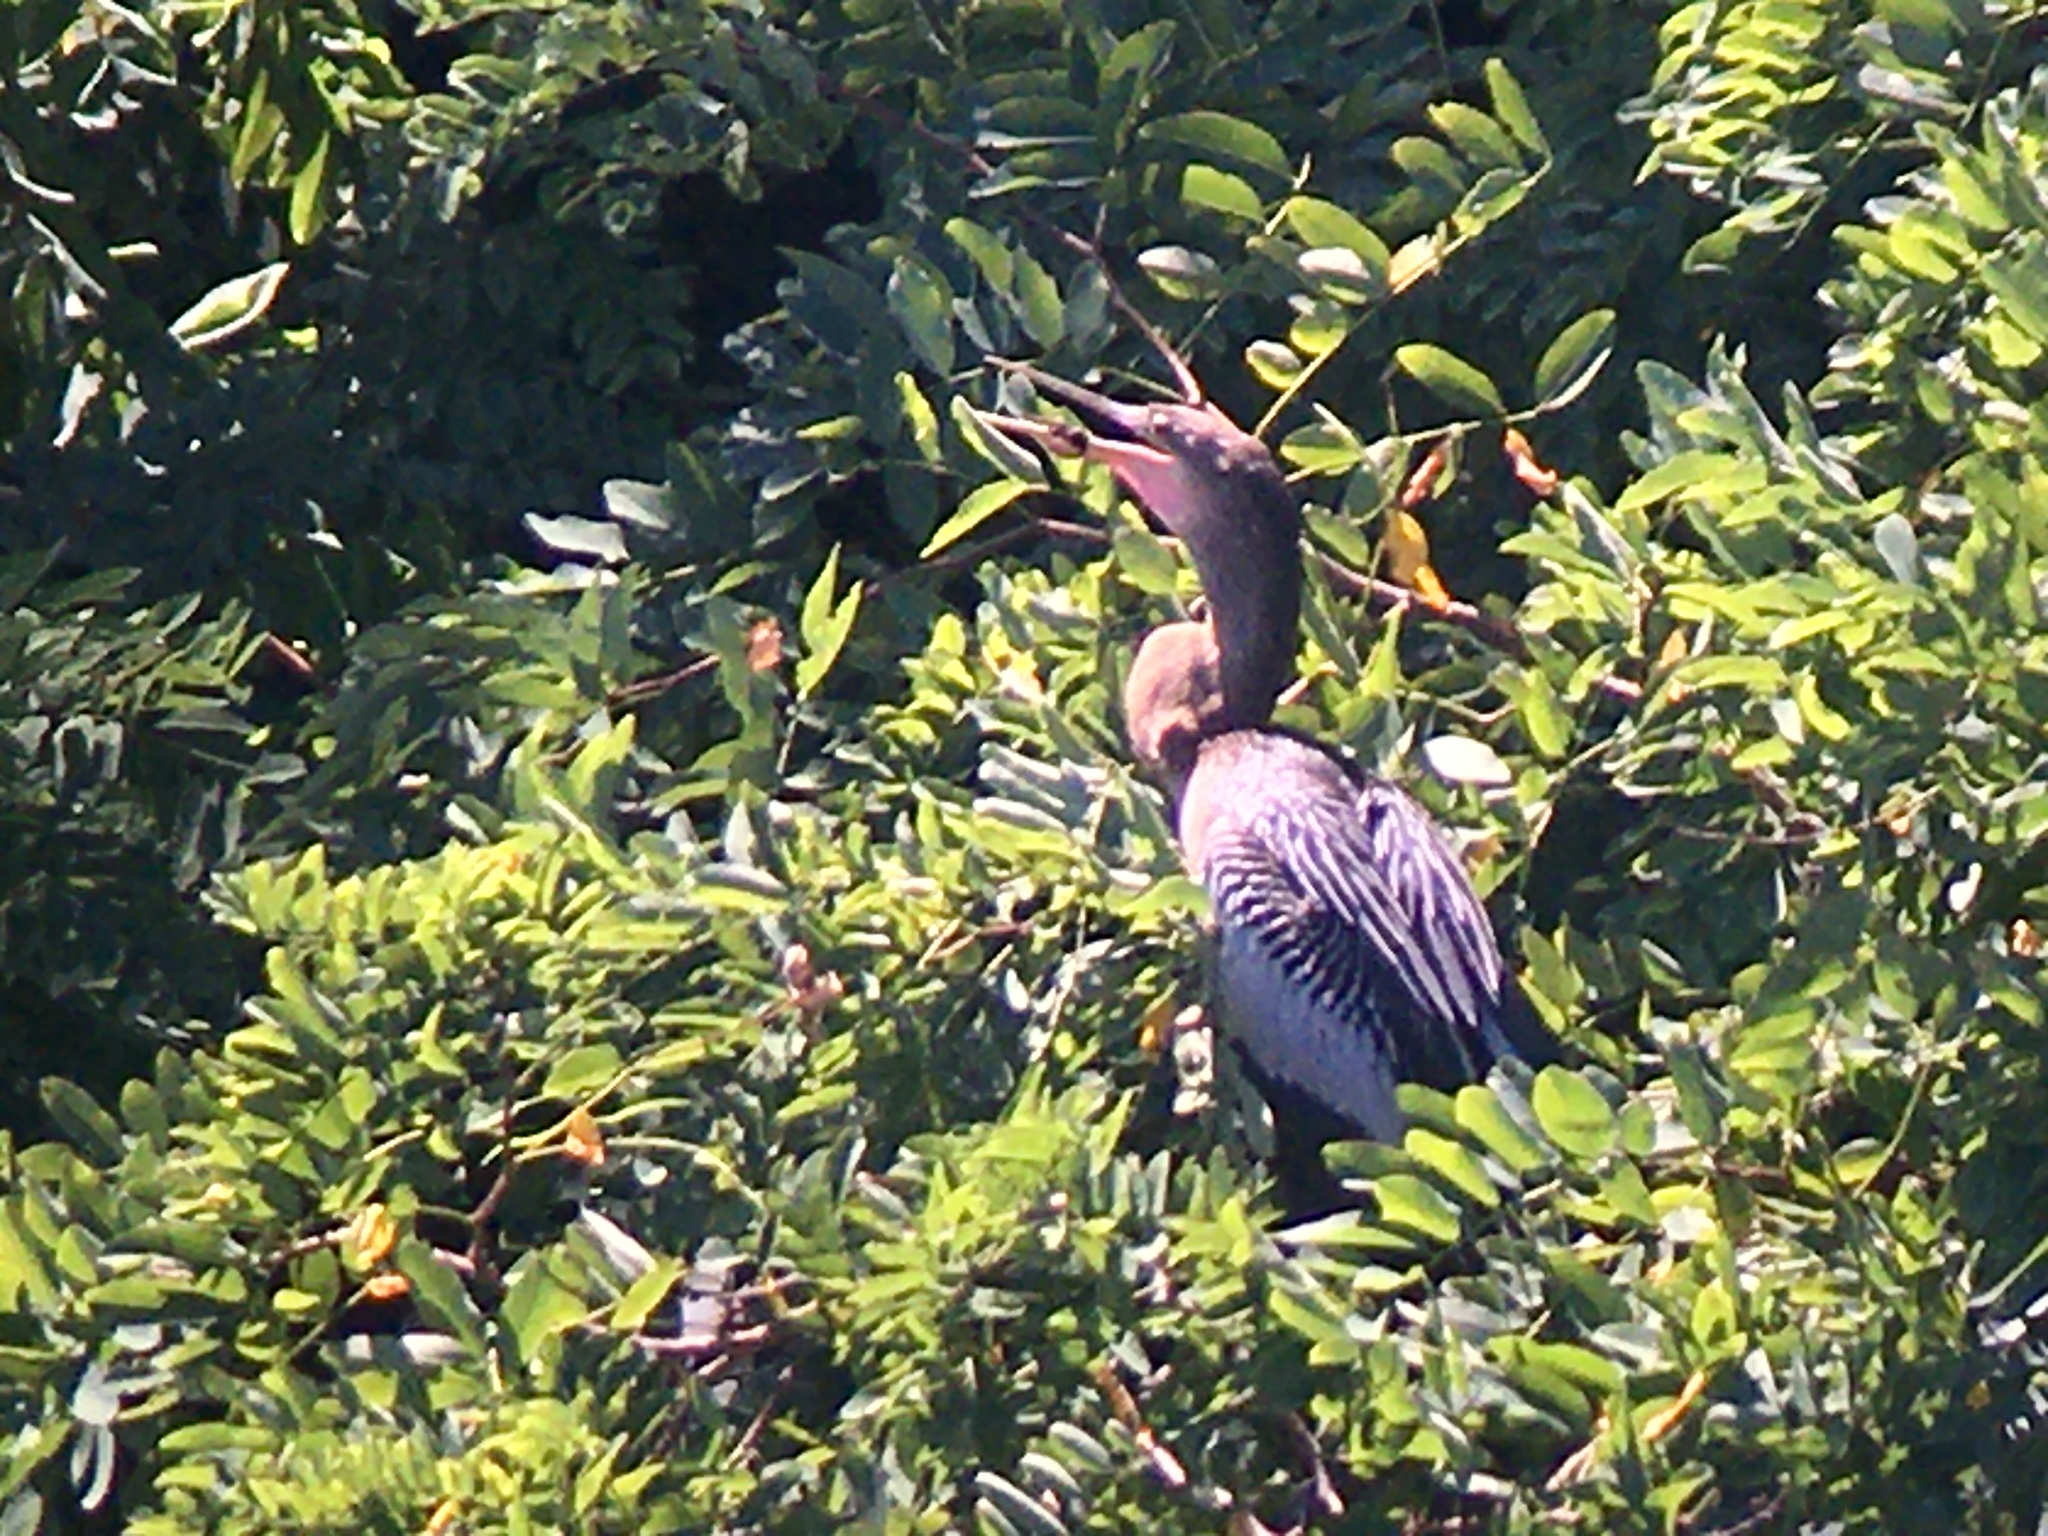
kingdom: Animalia
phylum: Chordata
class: Aves
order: Suliformes
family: Anhingidae
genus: Anhinga
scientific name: Anhinga anhinga
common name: Anhinga
